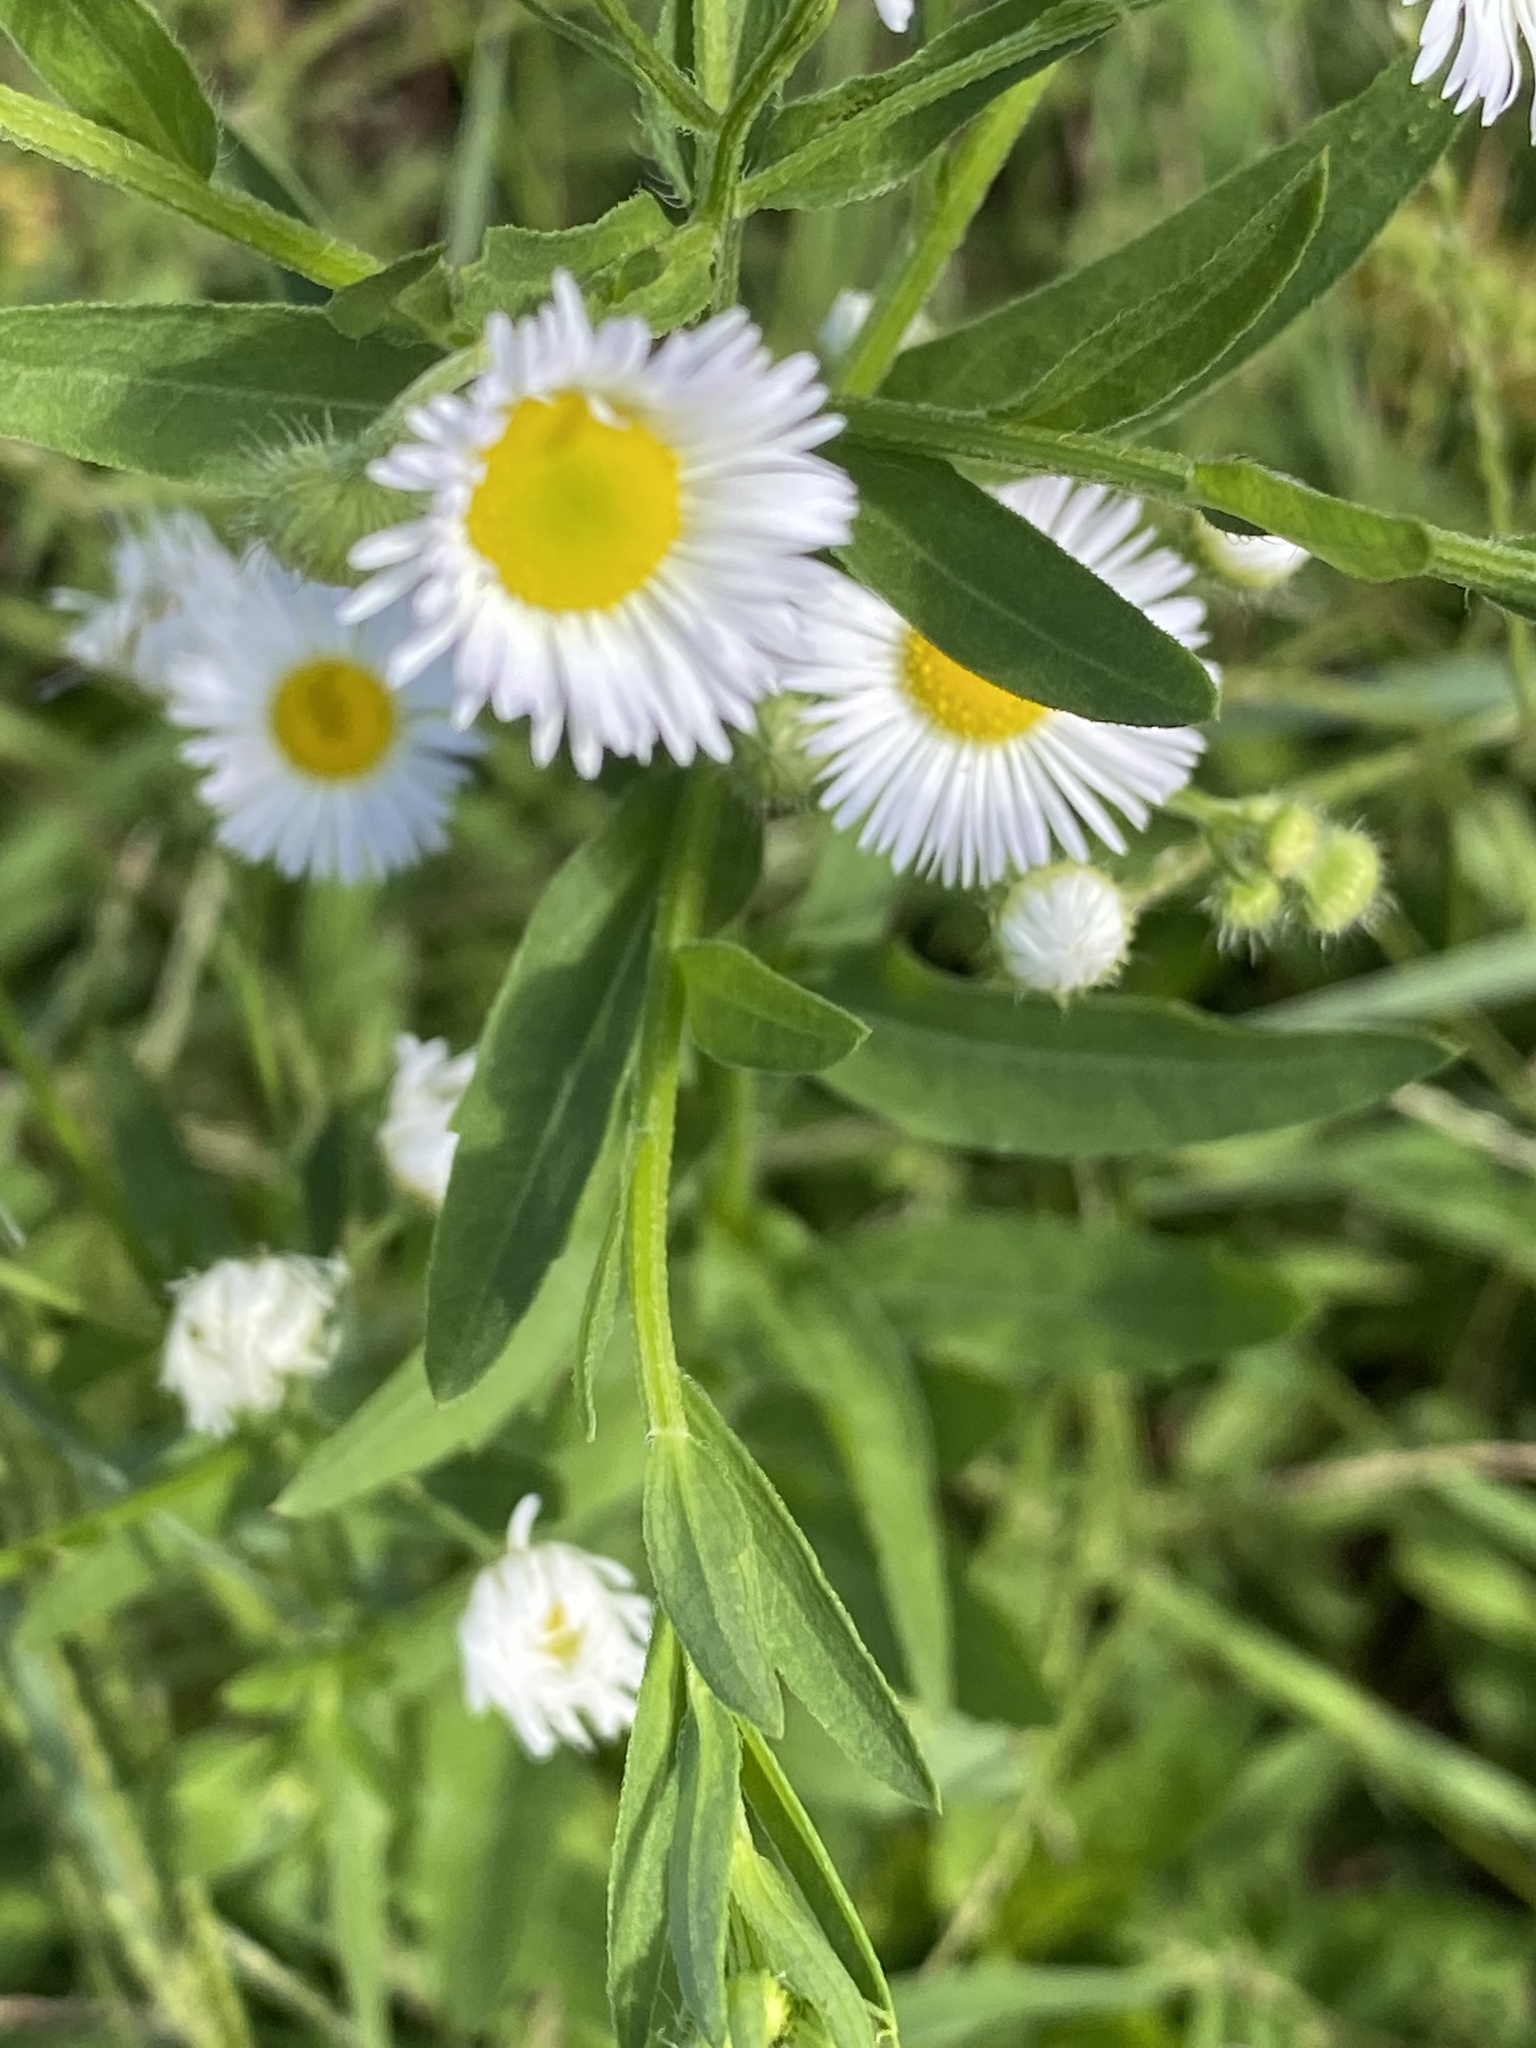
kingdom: Plantae
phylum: Tracheophyta
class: Magnoliopsida
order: Asterales
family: Asteraceae
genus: Erigeron
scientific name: Erigeron strigosus
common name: Common eastern fleabane
